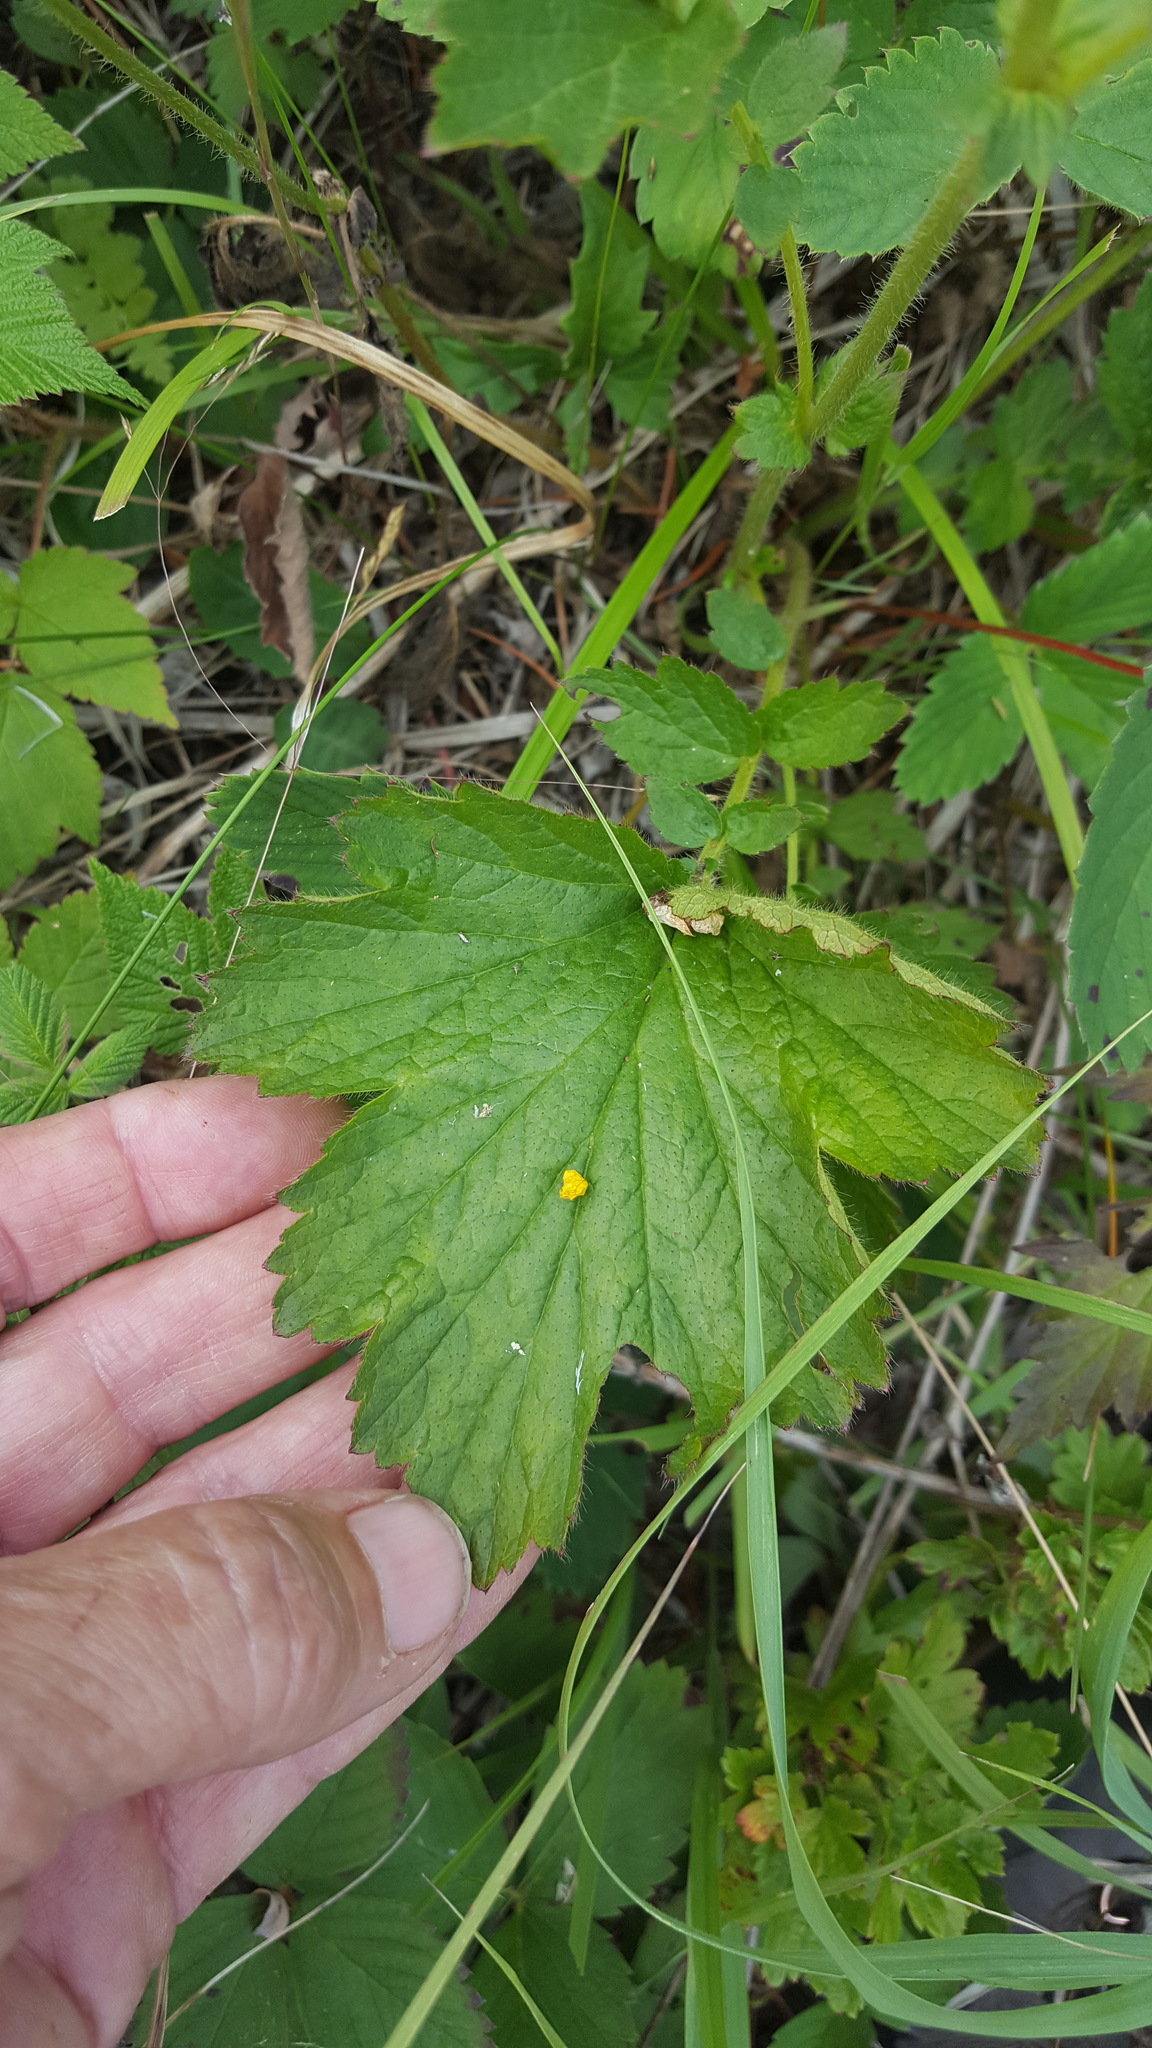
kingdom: Plantae
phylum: Tracheophyta
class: Magnoliopsida
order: Rosales
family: Rosaceae
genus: Geum
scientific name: Geum aleppicum
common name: Yellow avens
